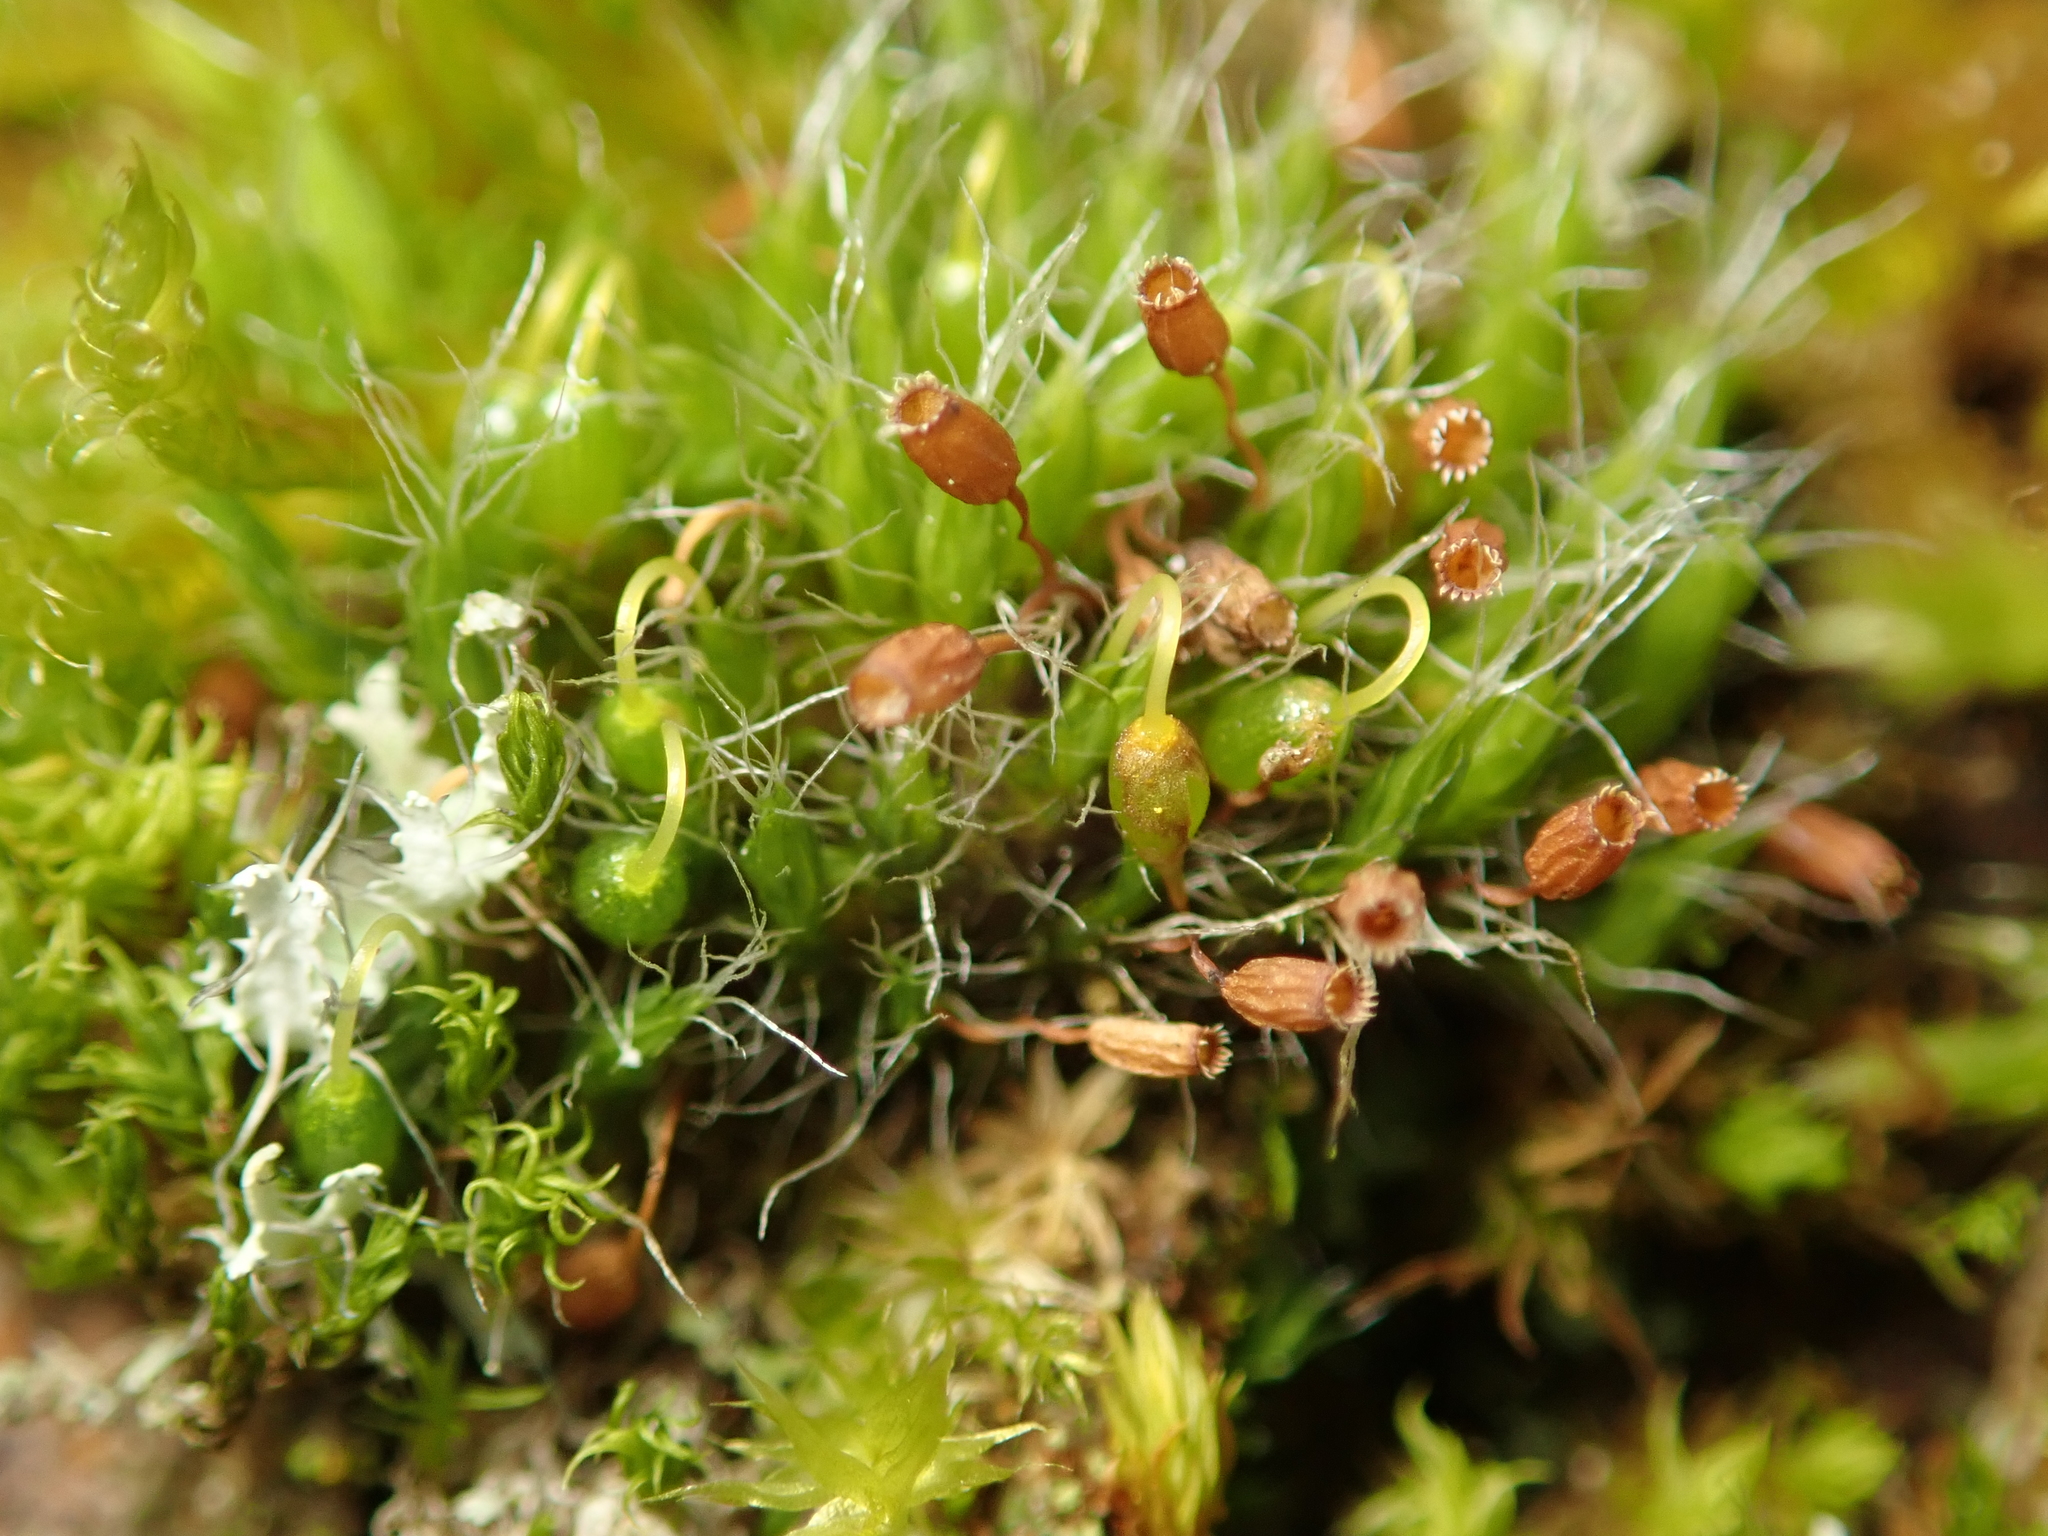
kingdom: Plantae
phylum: Bryophyta
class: Bryopsida
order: Grimmiales
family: Grimmiaceae
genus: Grimmia
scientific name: Grimmia pulvinata
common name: Grey-cushioned grimmia
